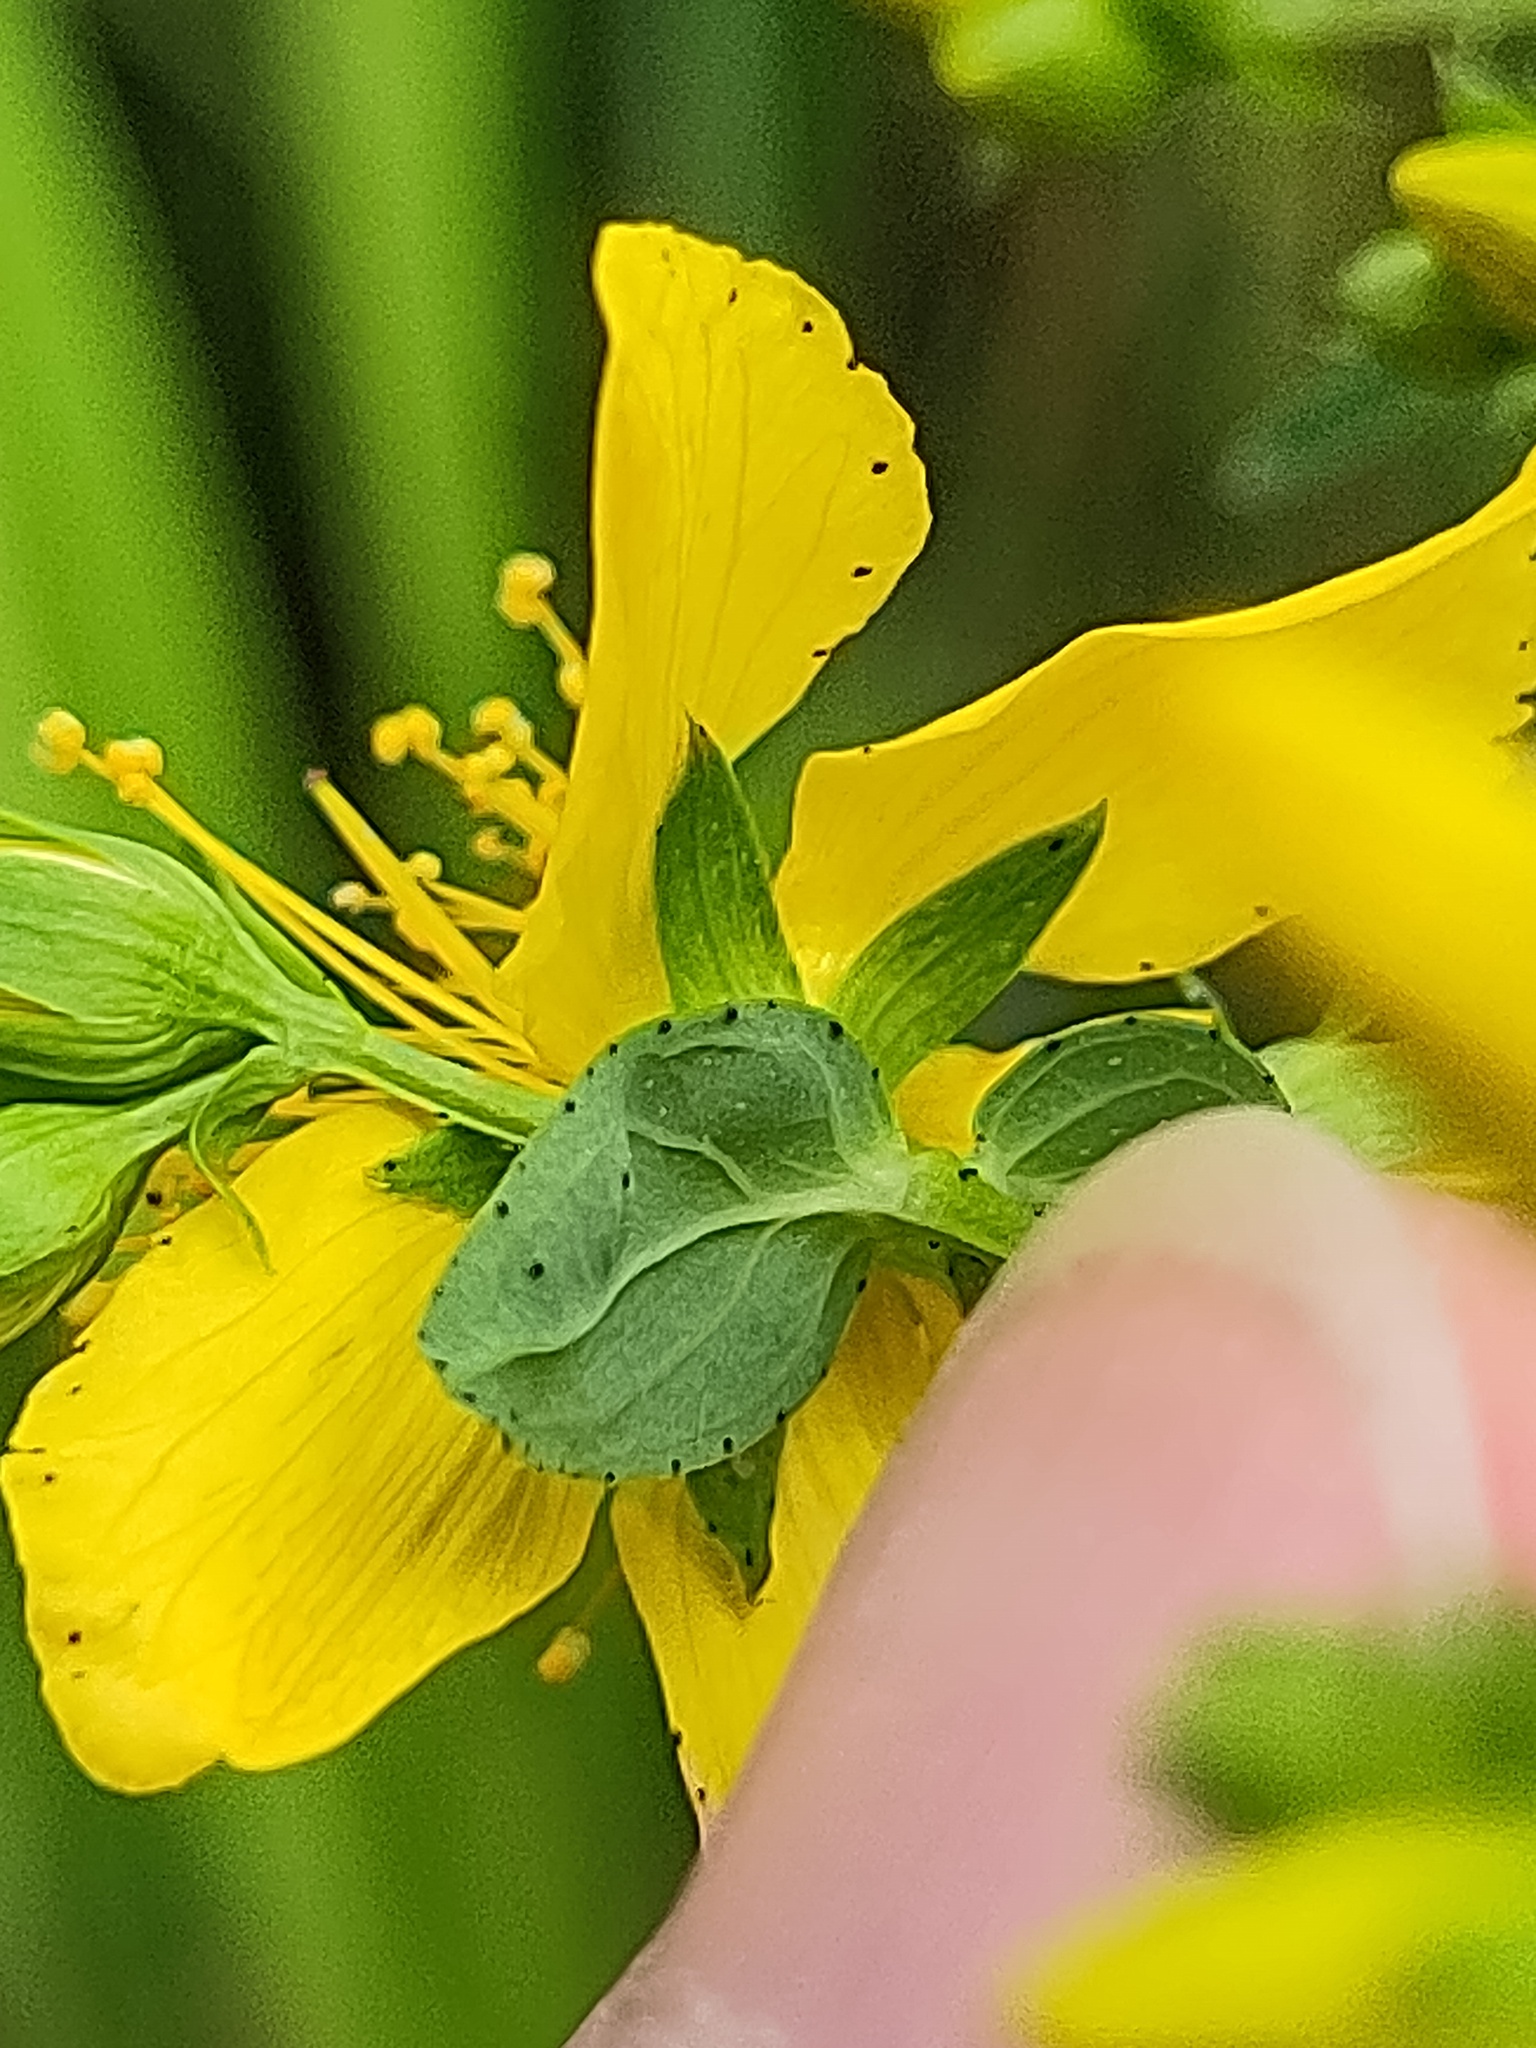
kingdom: Plantae
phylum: Tracheophyta
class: Magnoliopsida
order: Malpighiales
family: Hypericaceae
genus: Hypericum
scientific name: Hypericum desetangsii
